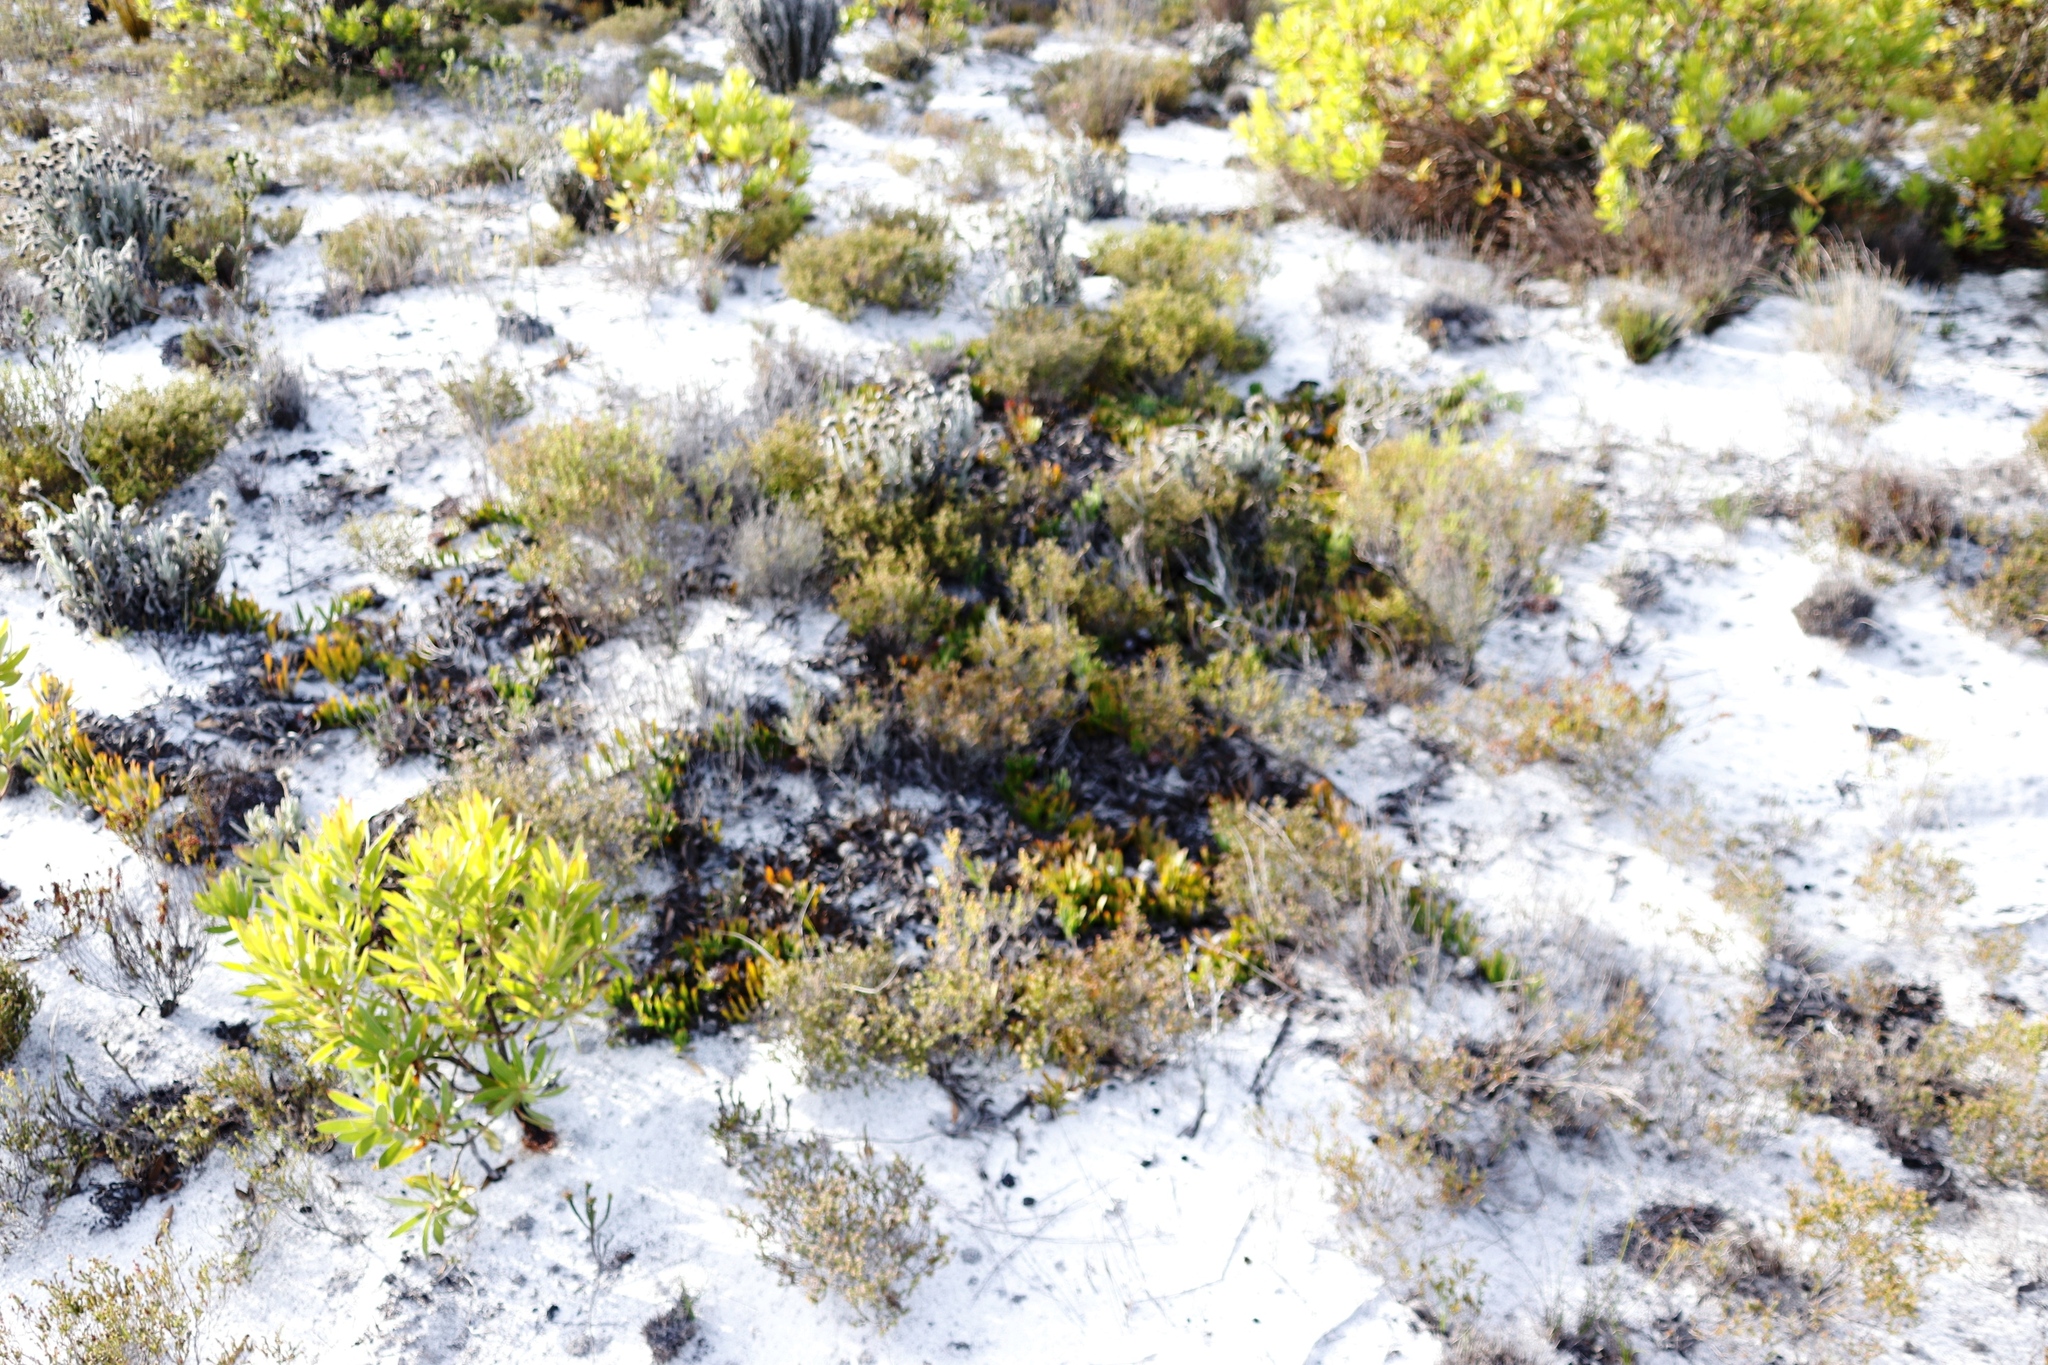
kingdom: Plantae
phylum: Tracheophyta
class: Magnoliopsida
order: Proteales
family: Proteaceae
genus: Leucospermum
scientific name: Leucospermum hypophyllocarpodendron
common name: Snakestem pincushion
